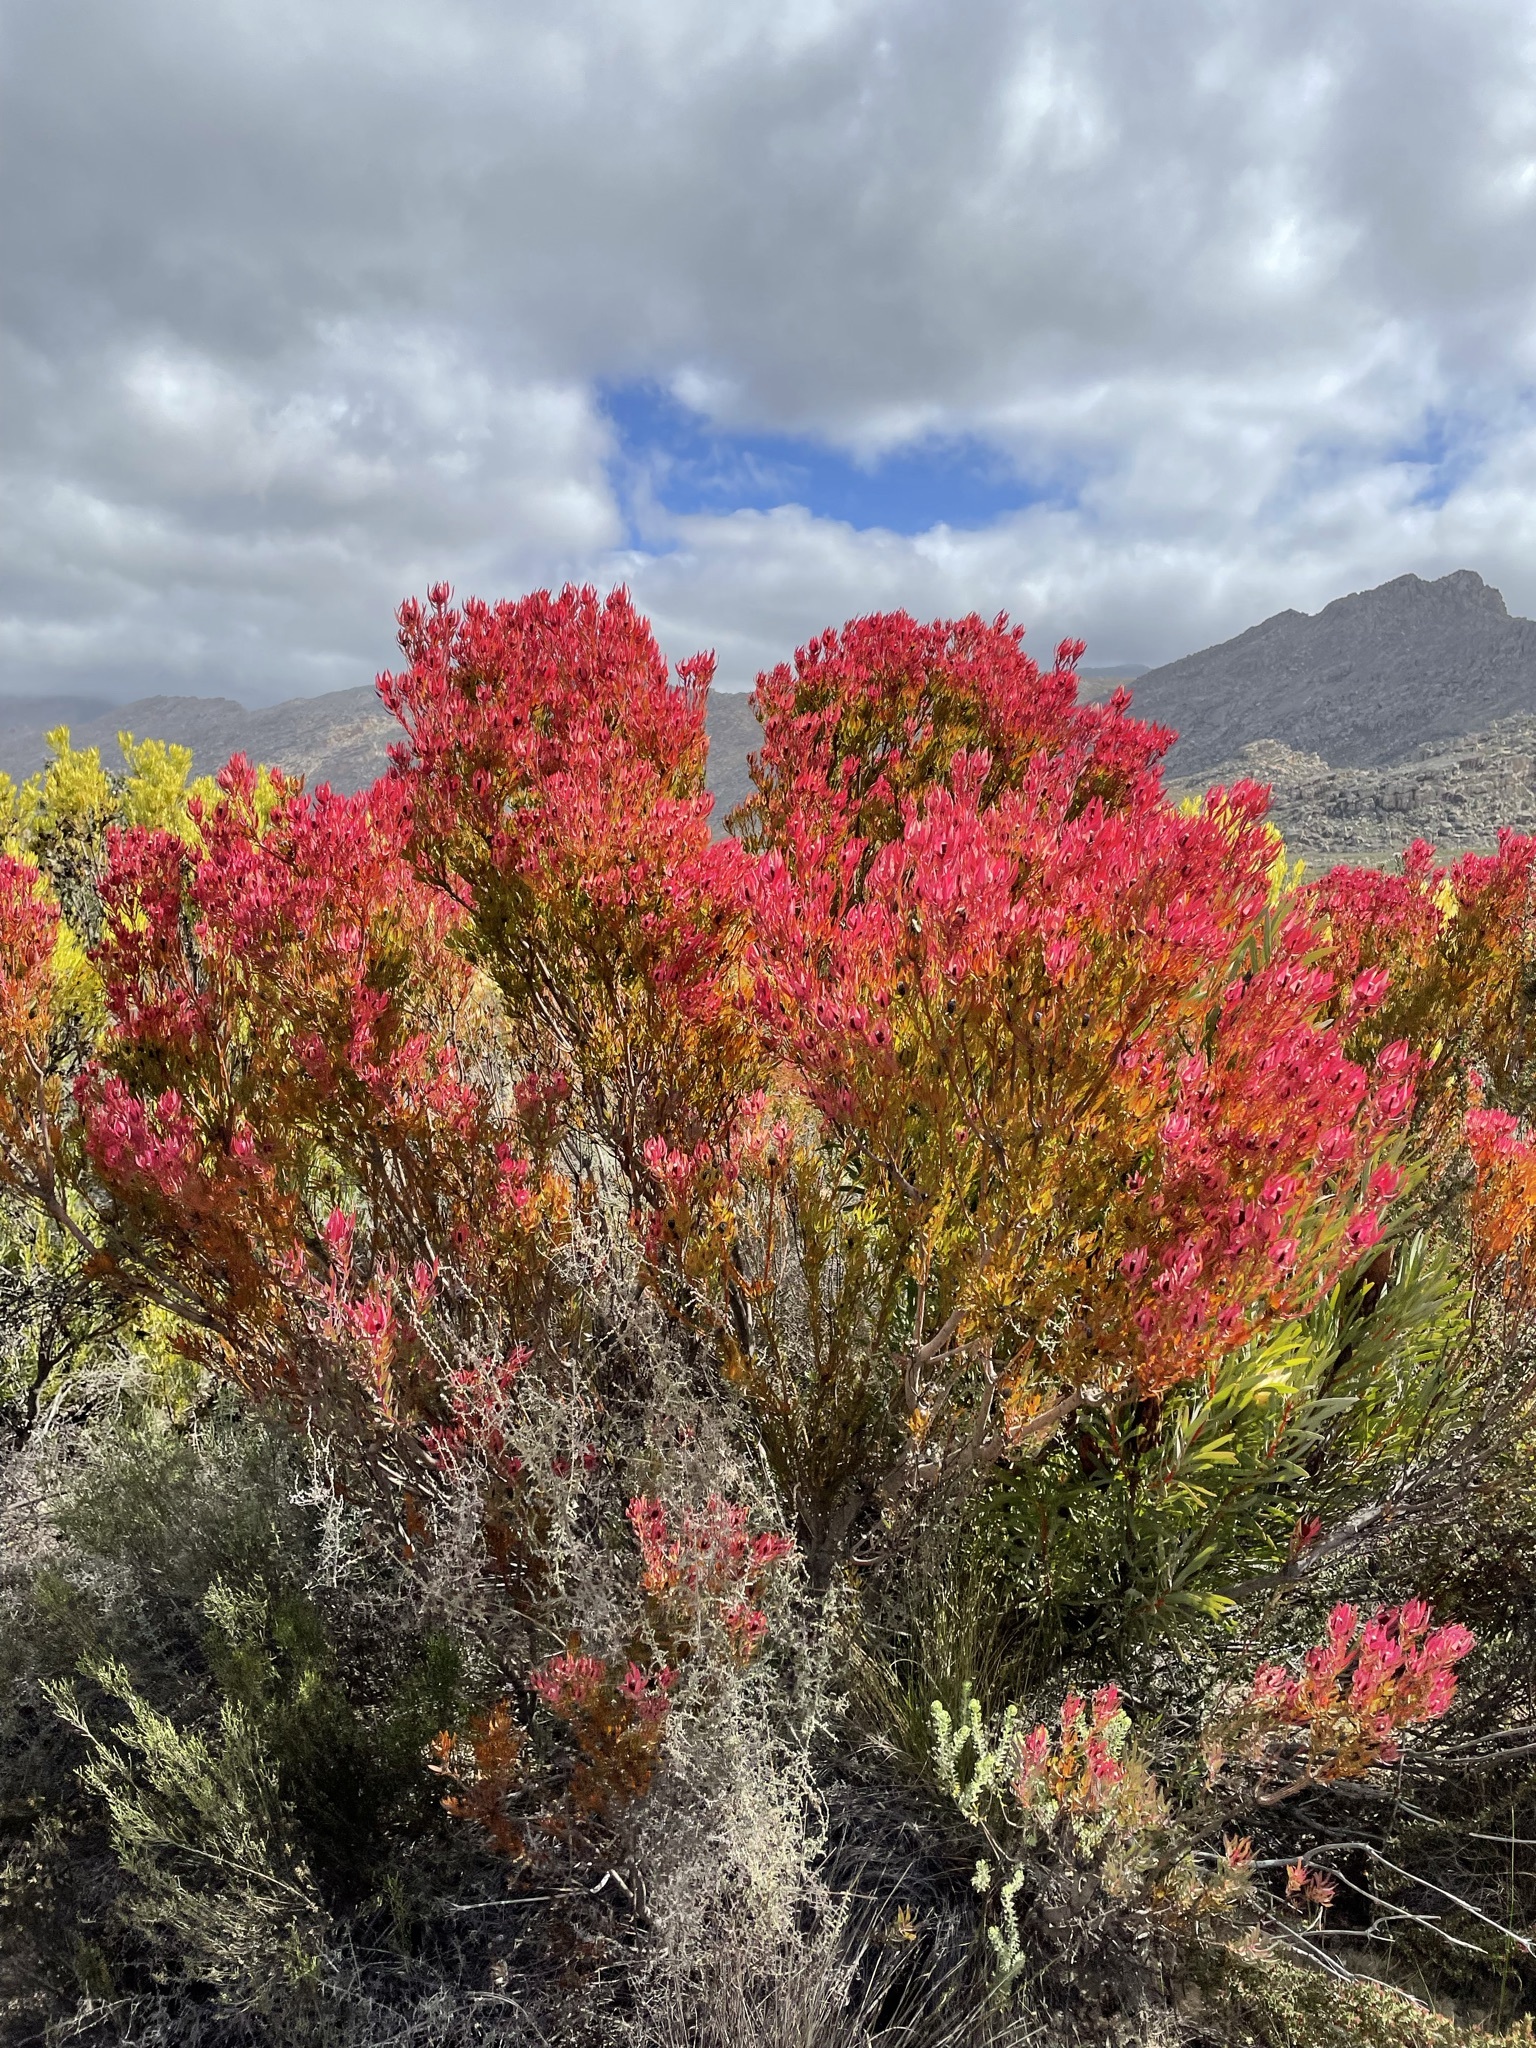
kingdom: Plantae
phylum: Tracheophyta
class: Magnoliopsida
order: Proteales
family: Proteaceae
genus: Leucadendron
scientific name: Leucadendron salignum
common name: Common sunshine conebush
